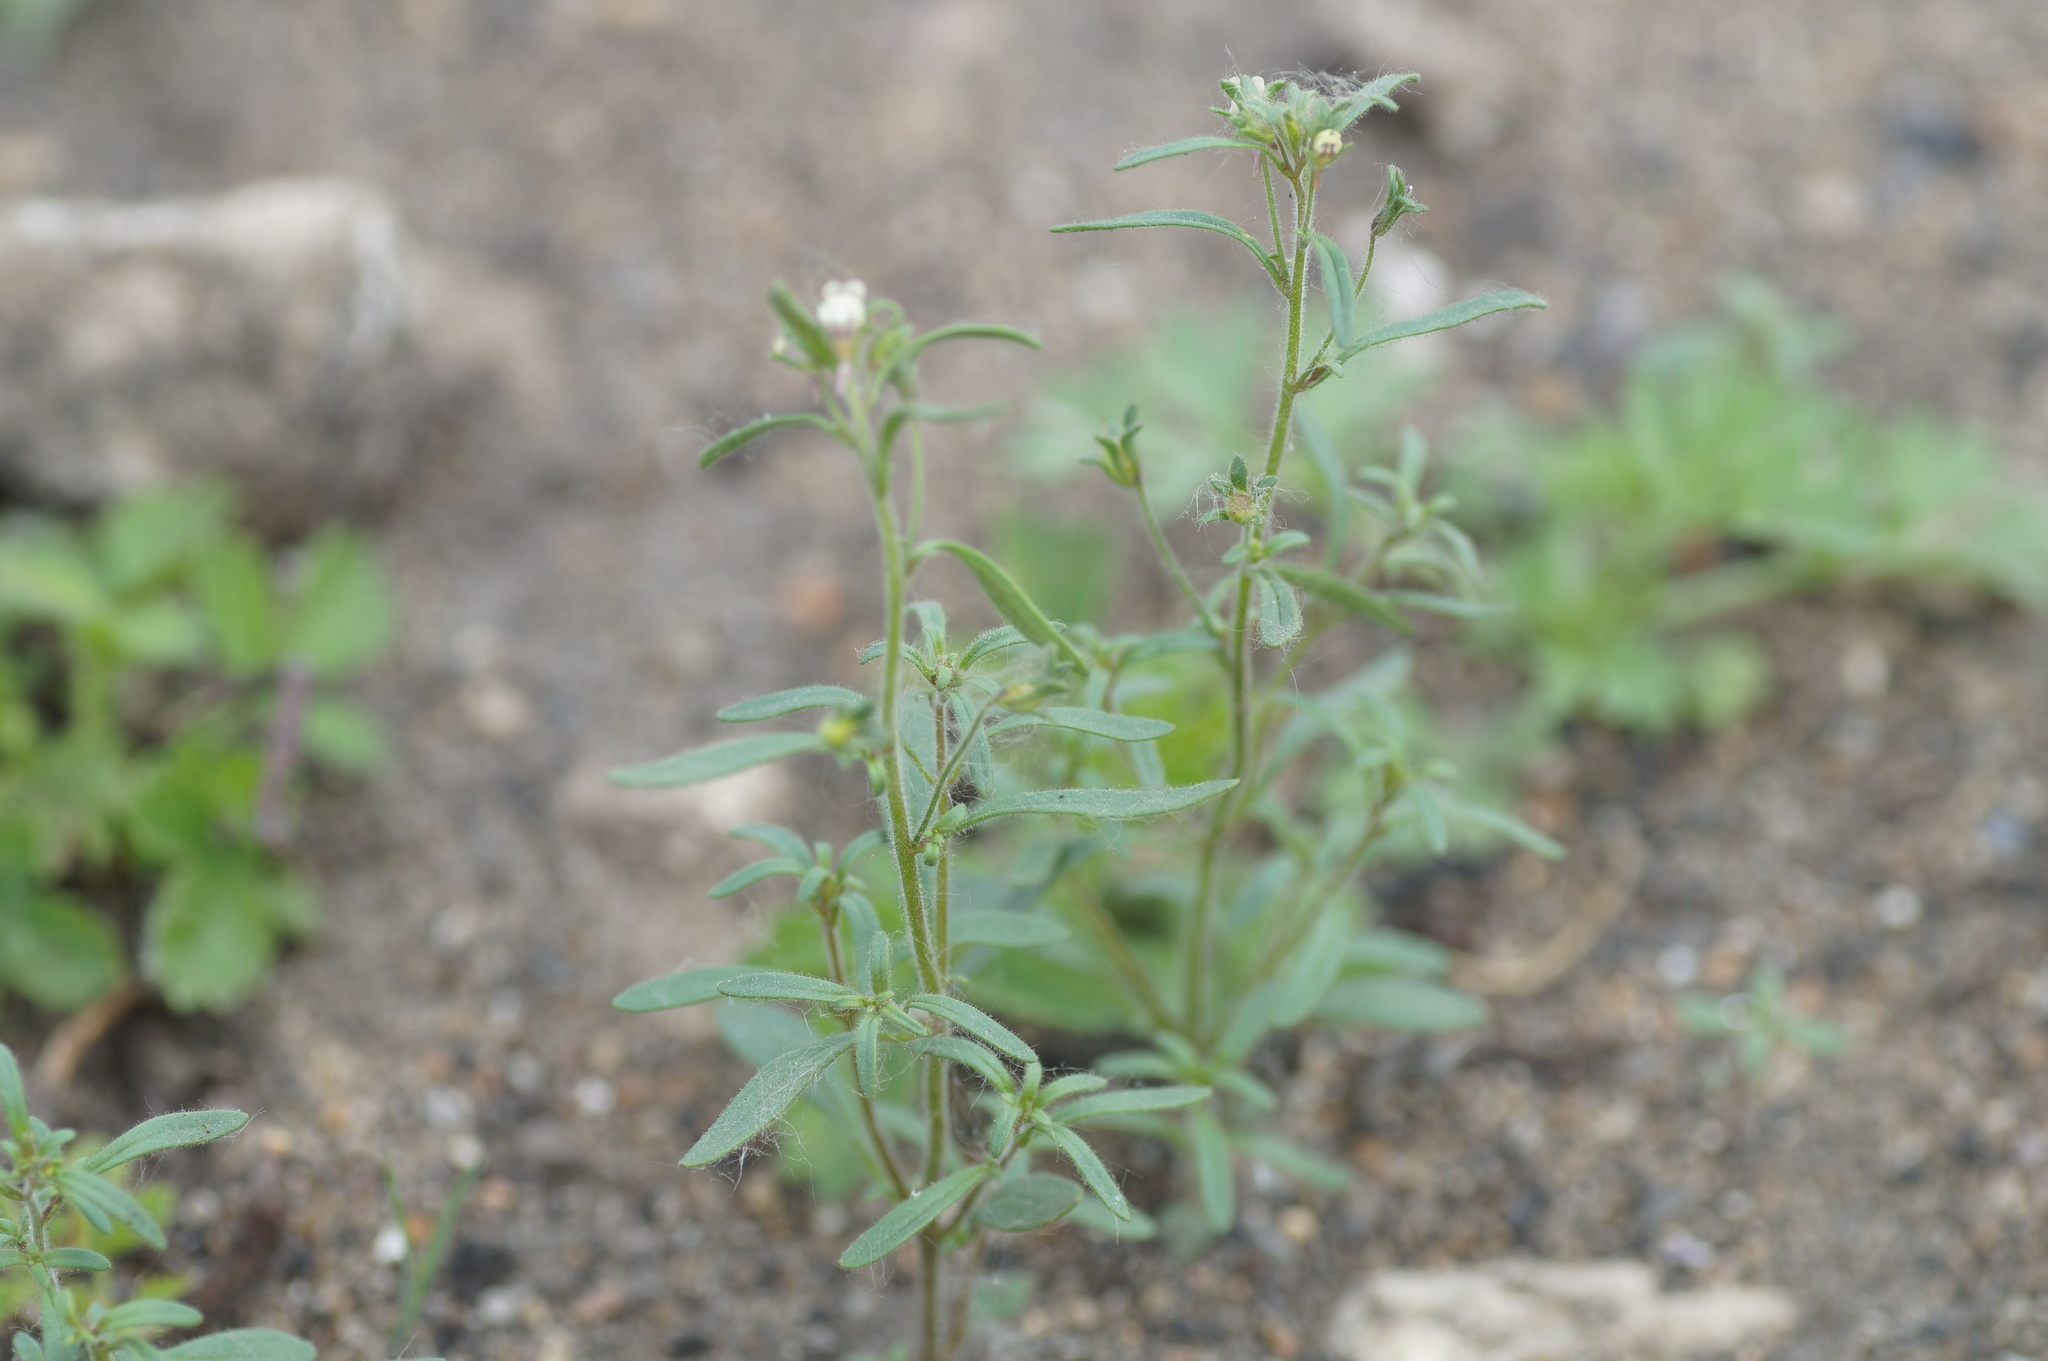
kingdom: Plantae
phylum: Tracheophyta
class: Magnoliopsida
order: Lamiales
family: Plantaginaceae
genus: Chaenorhinum
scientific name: Chaenorhinum minus
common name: Dwarf snapdragon
